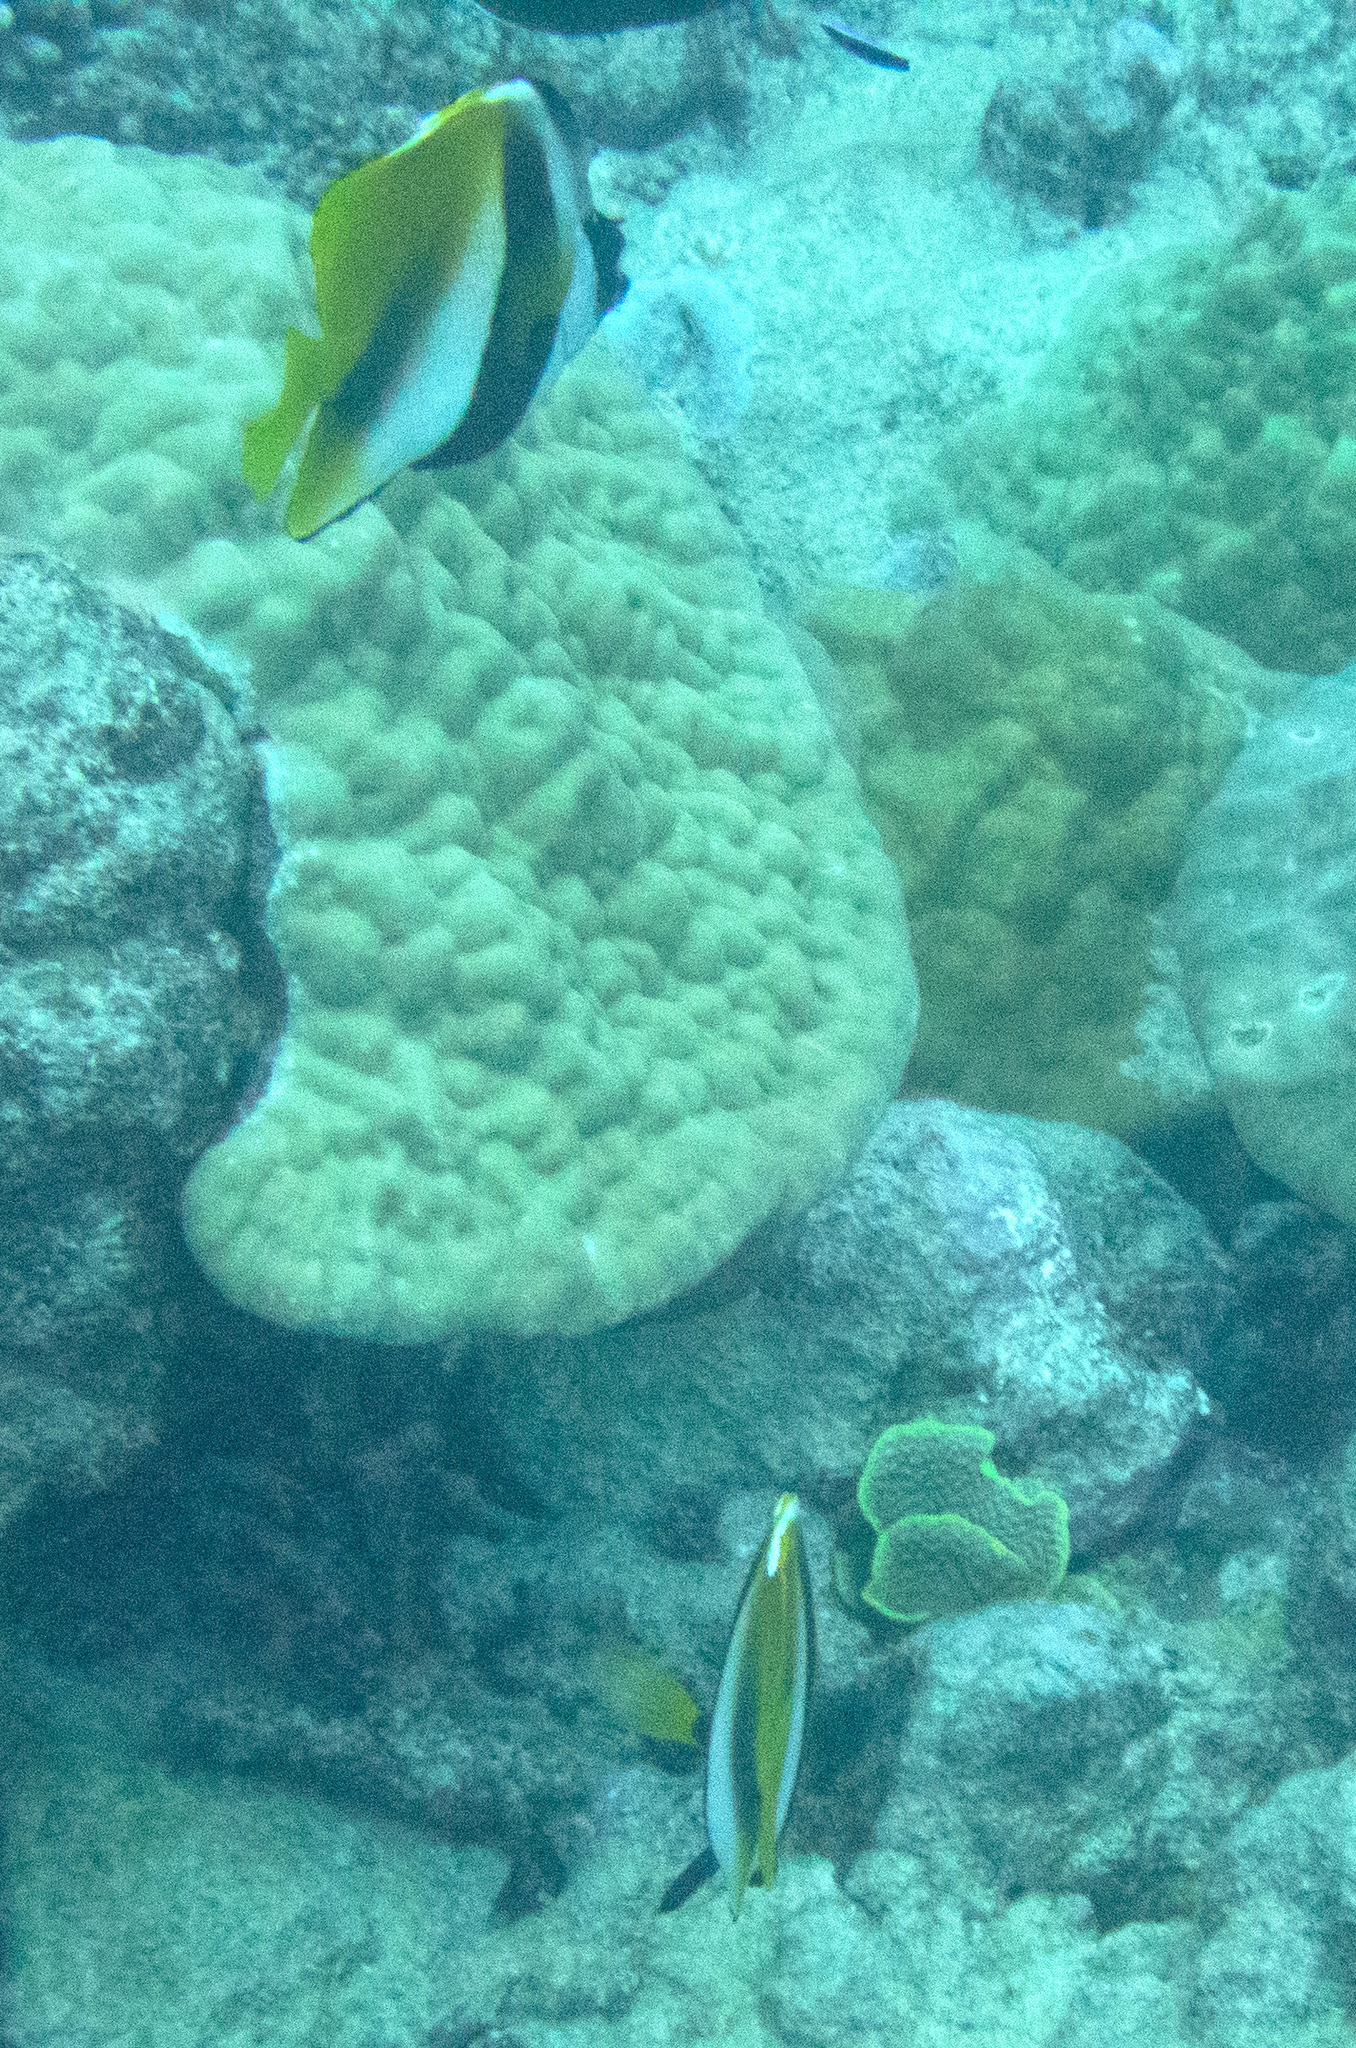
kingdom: Animalia
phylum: Chordata
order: Perciformes
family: Chaetodontidae
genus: Heniochus
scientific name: Heniochus monoceros
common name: Masked bannerfish
